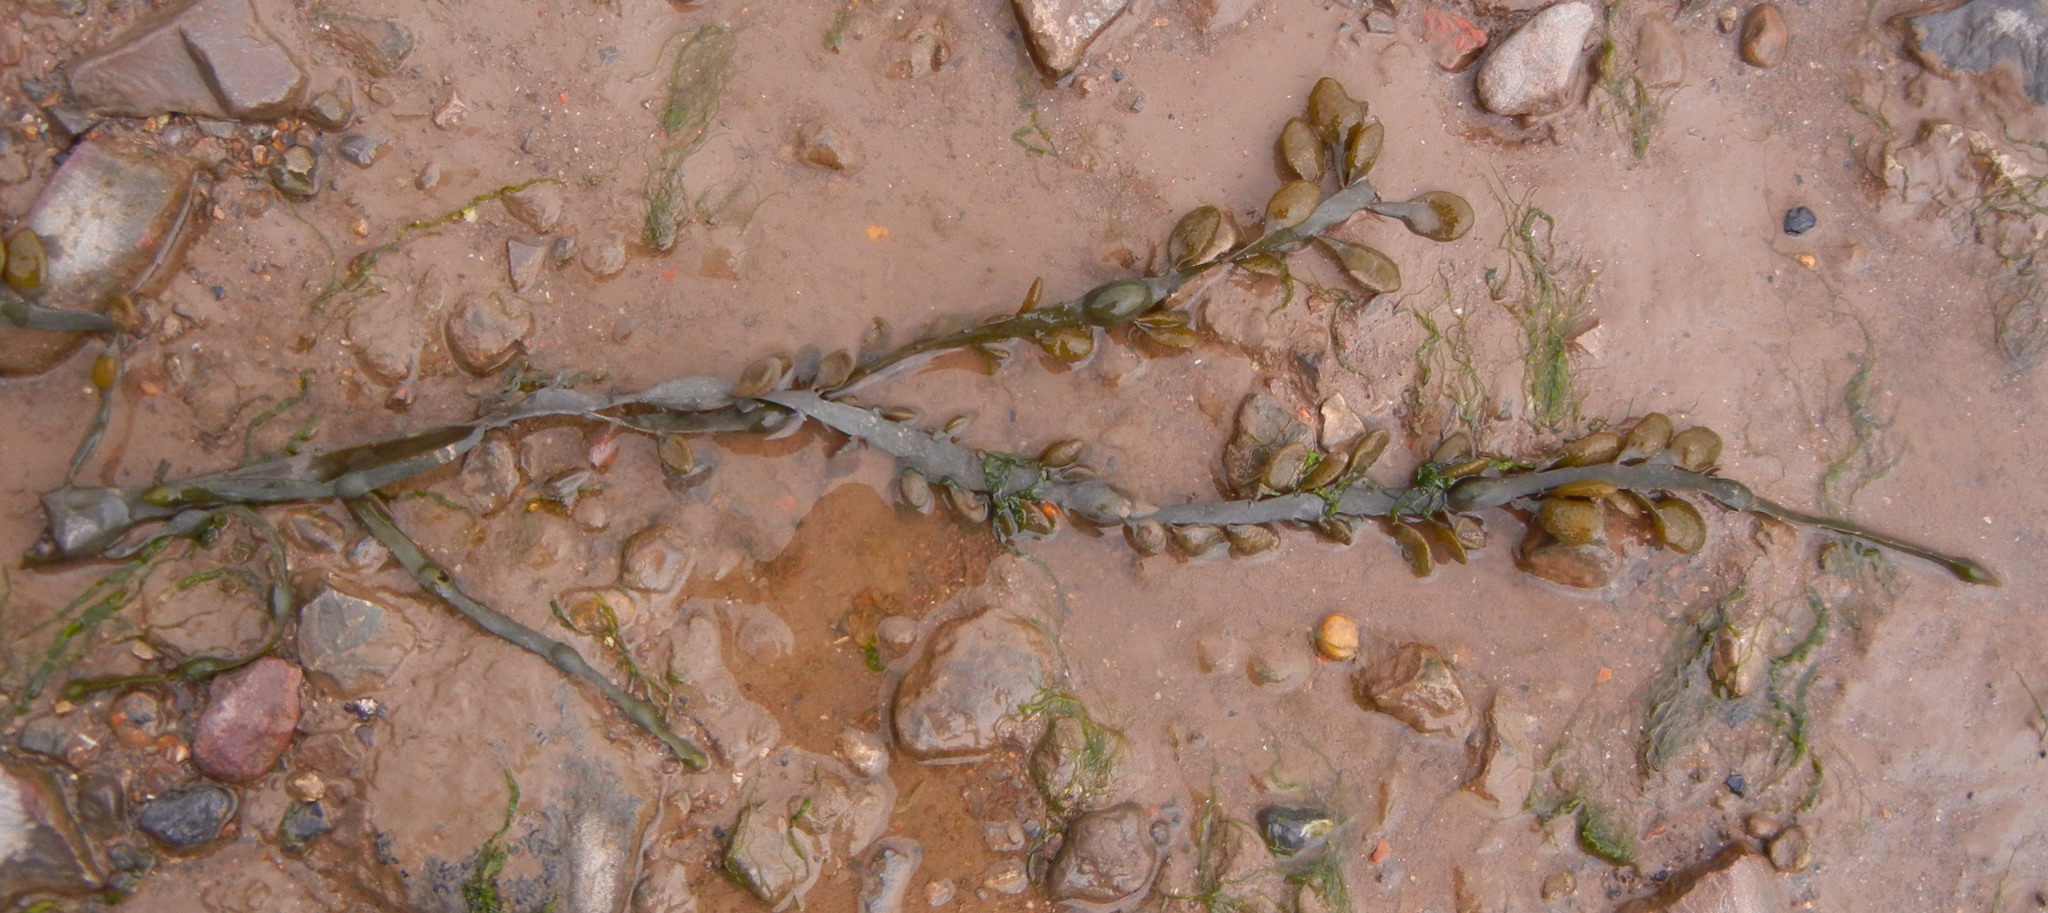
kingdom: Chromista
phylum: Ochrophyta
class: Phaeophyceae
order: Fucales
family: Fucaceae
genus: Ascophyllum
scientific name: Ascophyllum nodosum
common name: Knotted wrack
